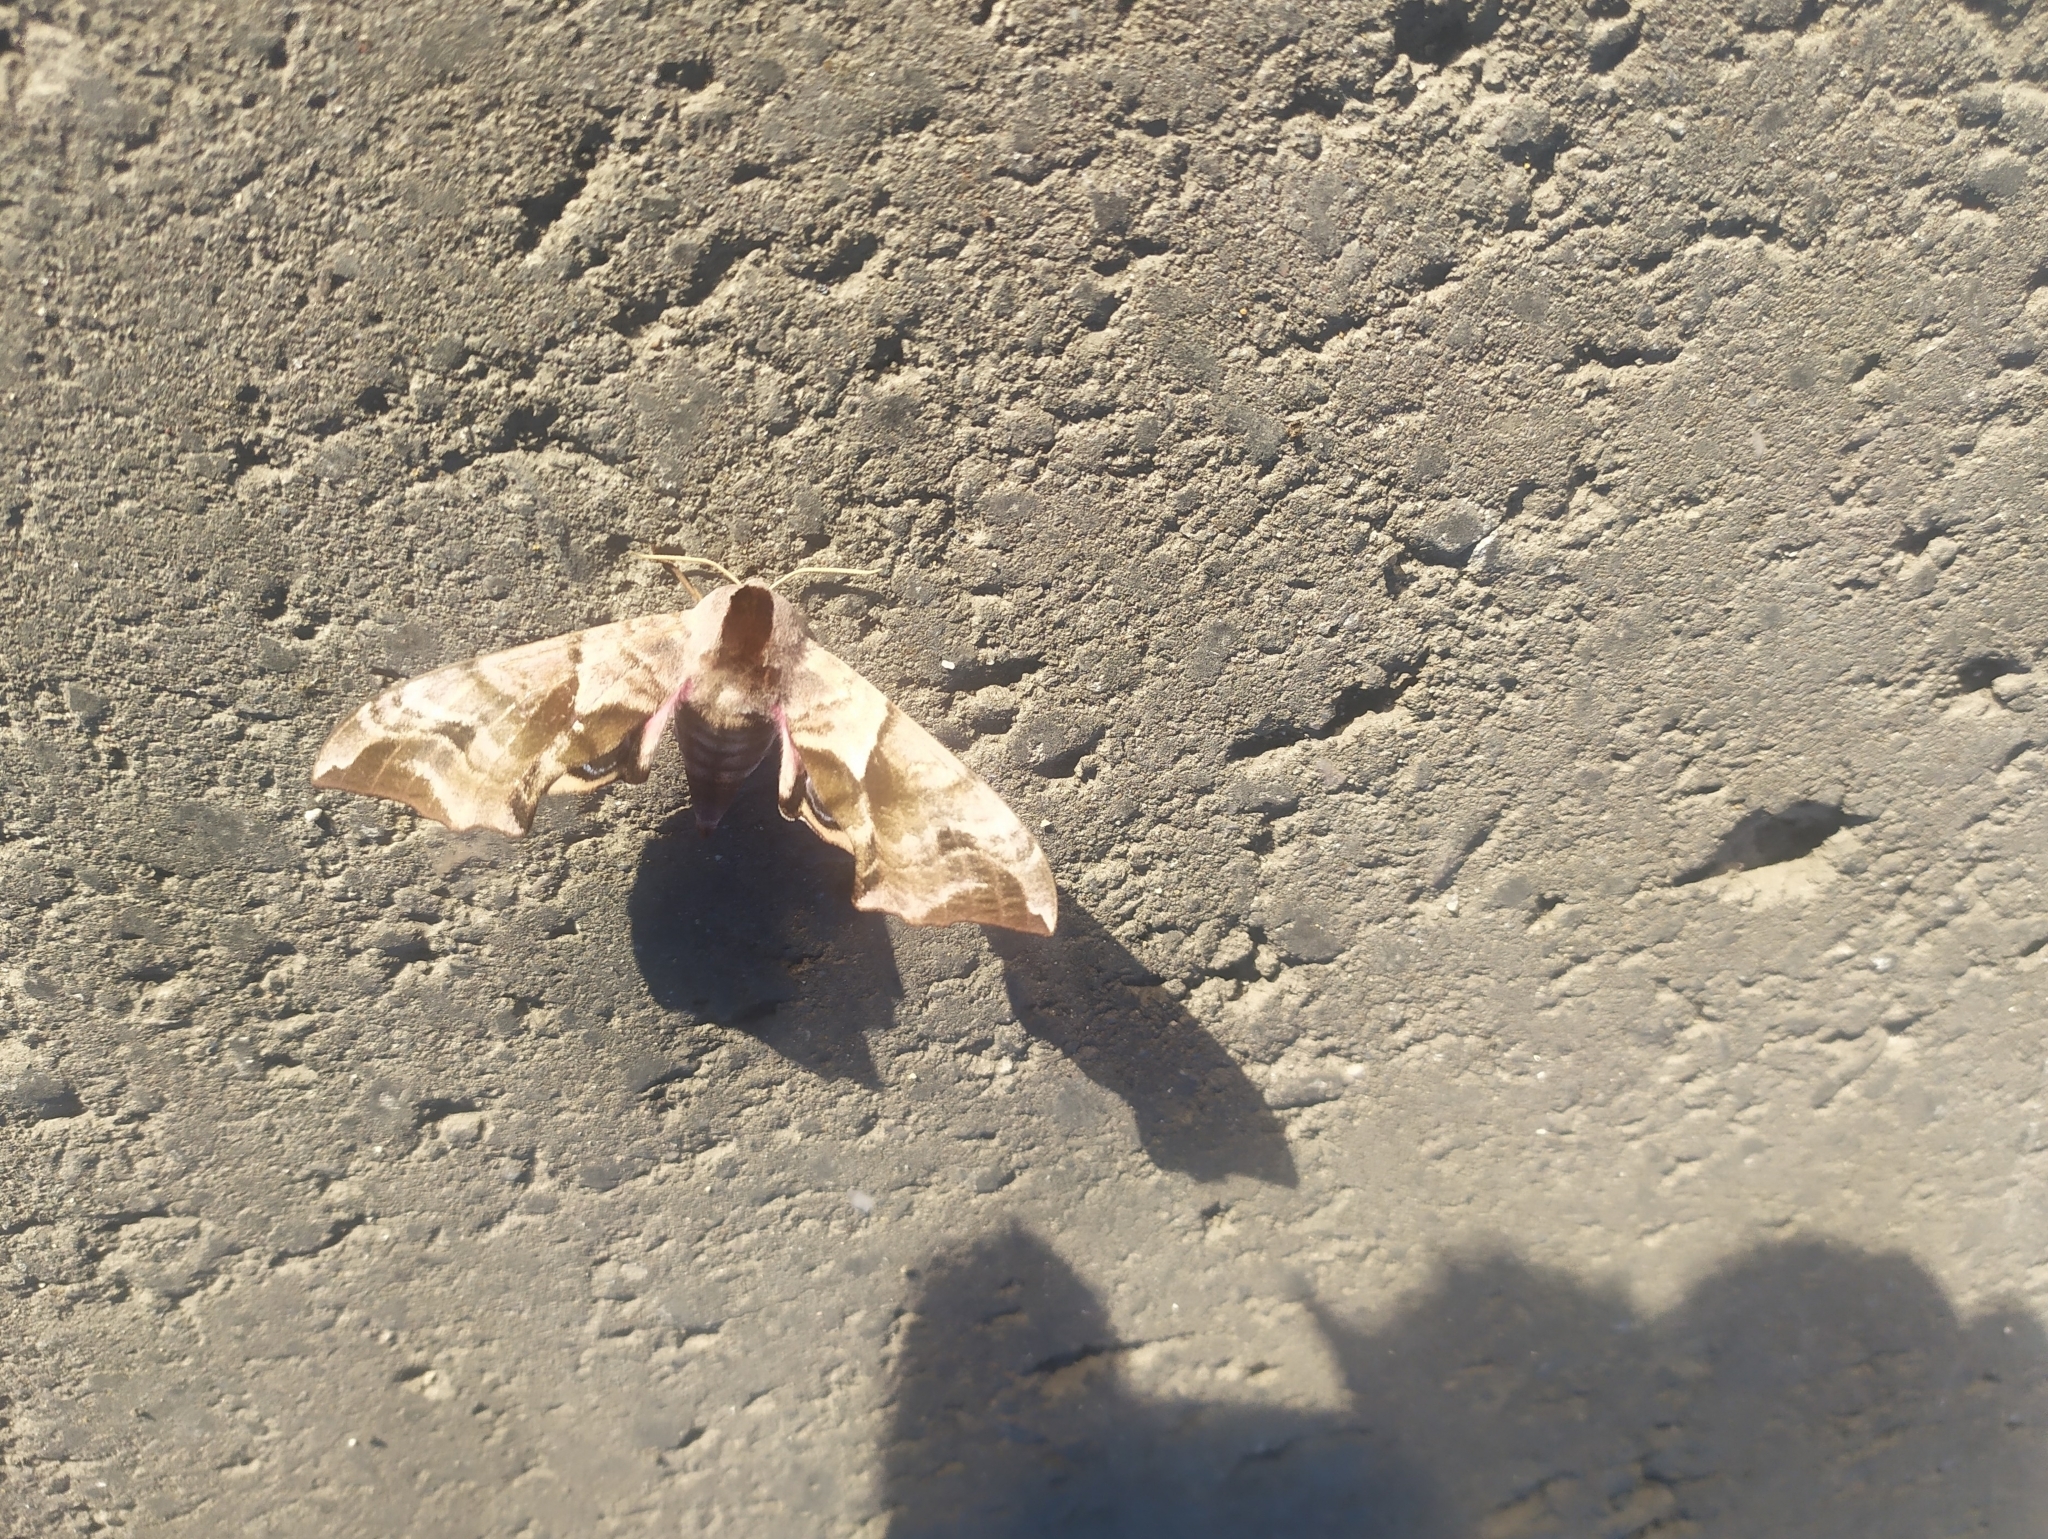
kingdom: Animalia
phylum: Arthropoda
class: Insecta
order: Lepidoptera
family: Sphingidae
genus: Smerinthus
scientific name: Smerinthus ocellata
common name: Eyed hawk-moth
